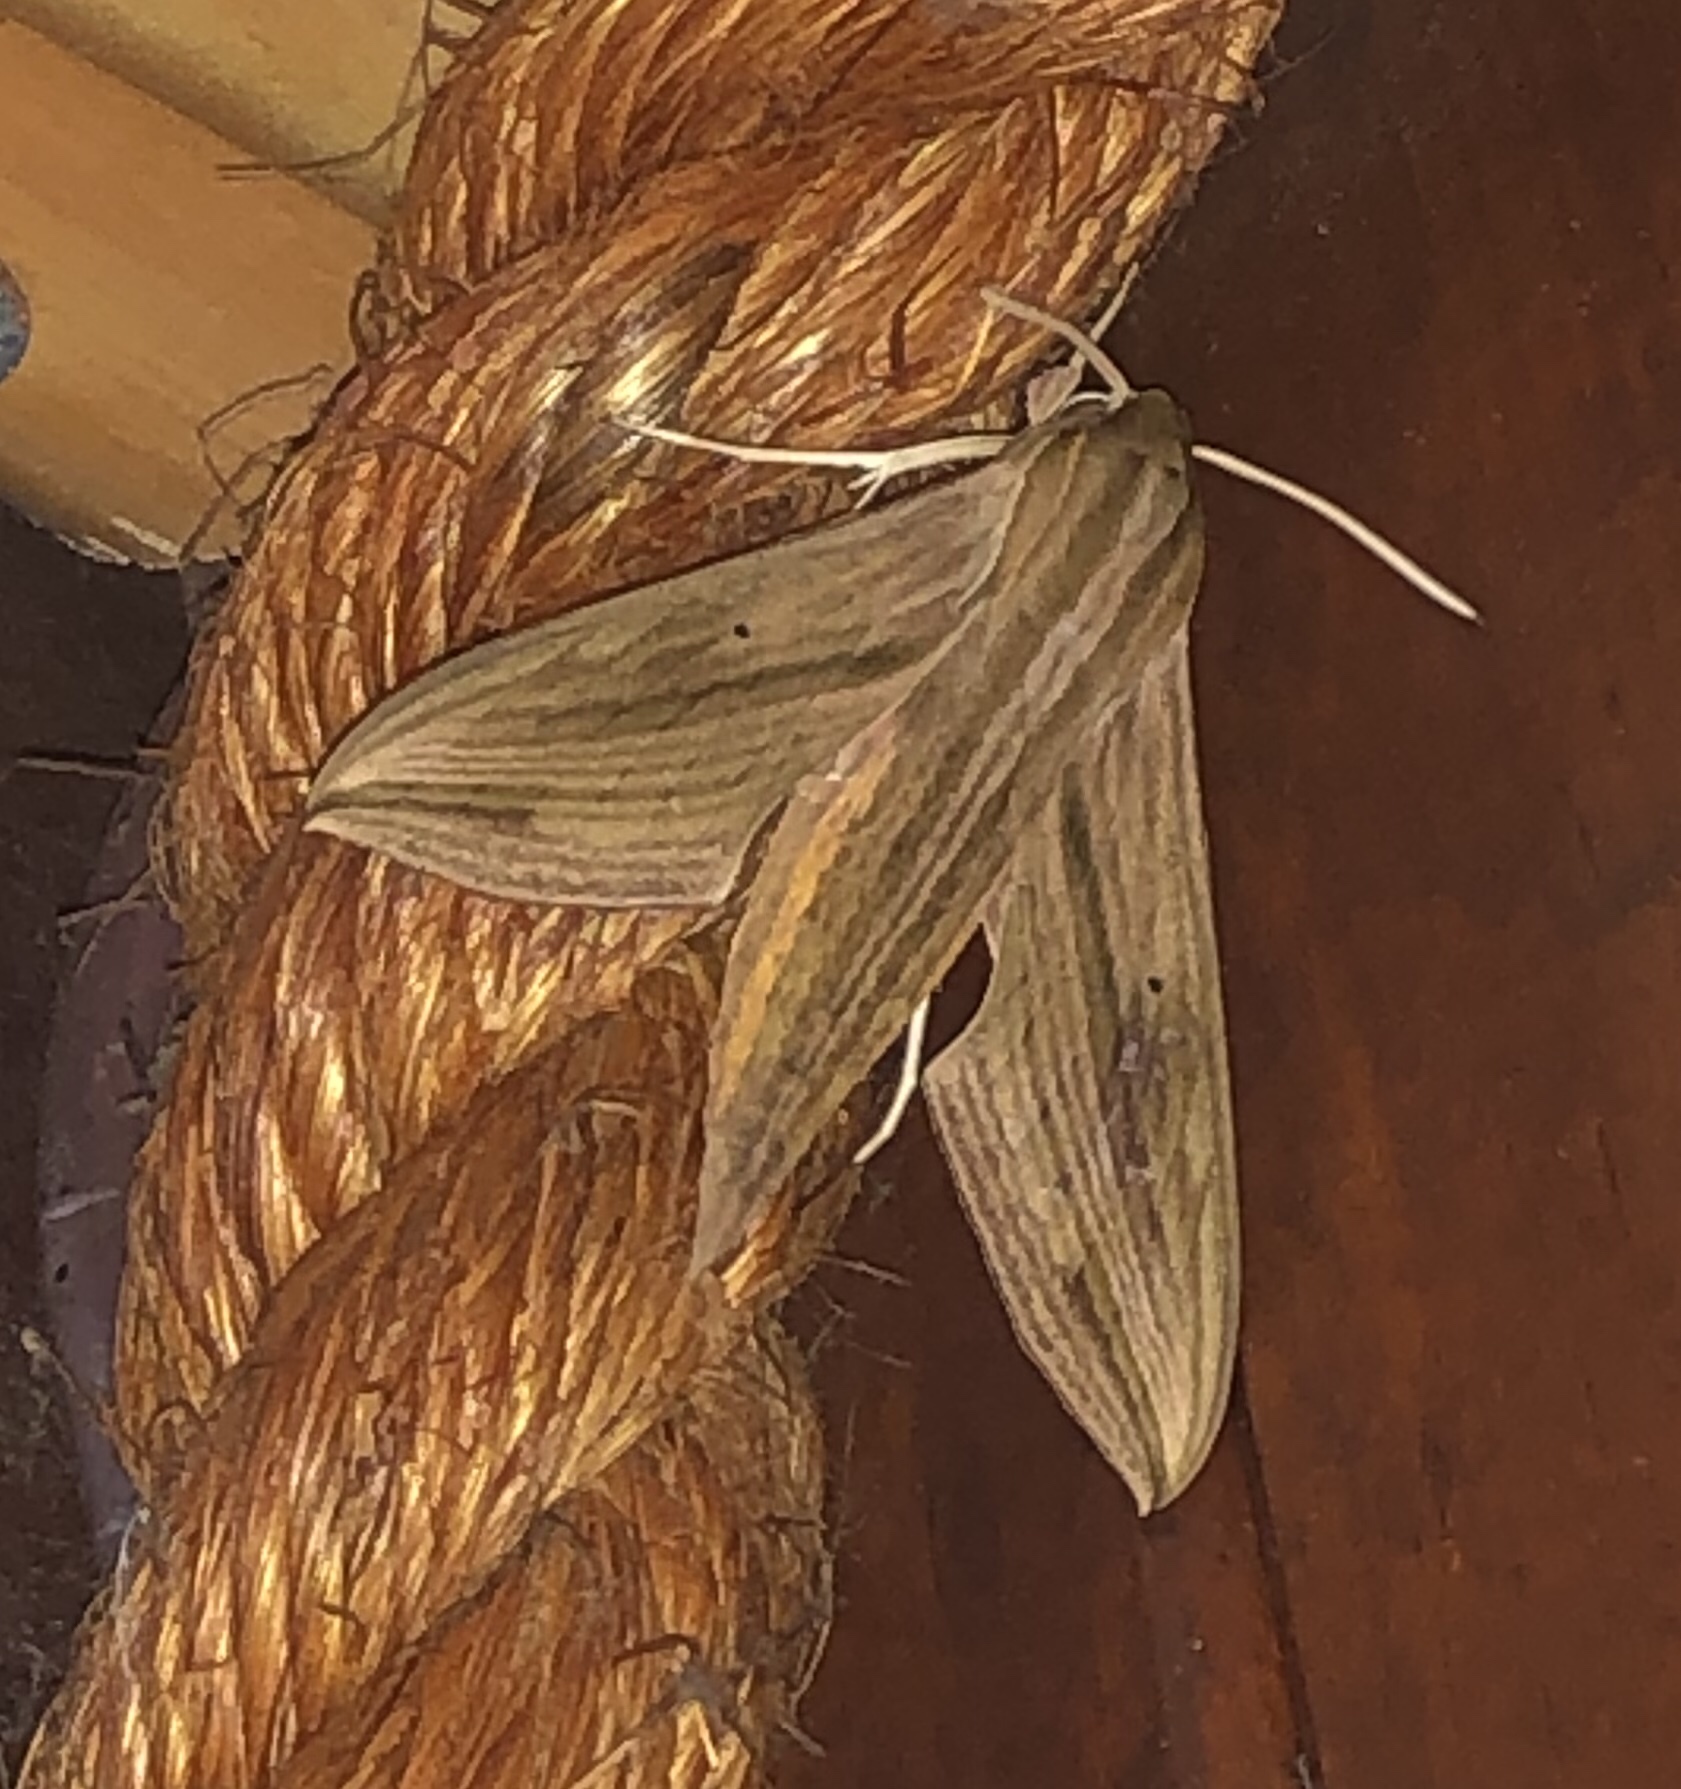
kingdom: Animalia
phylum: Arthropoda
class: Insecta
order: Lepidoptera
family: Sphingidae
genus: Hippotion
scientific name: Hippotion eson
